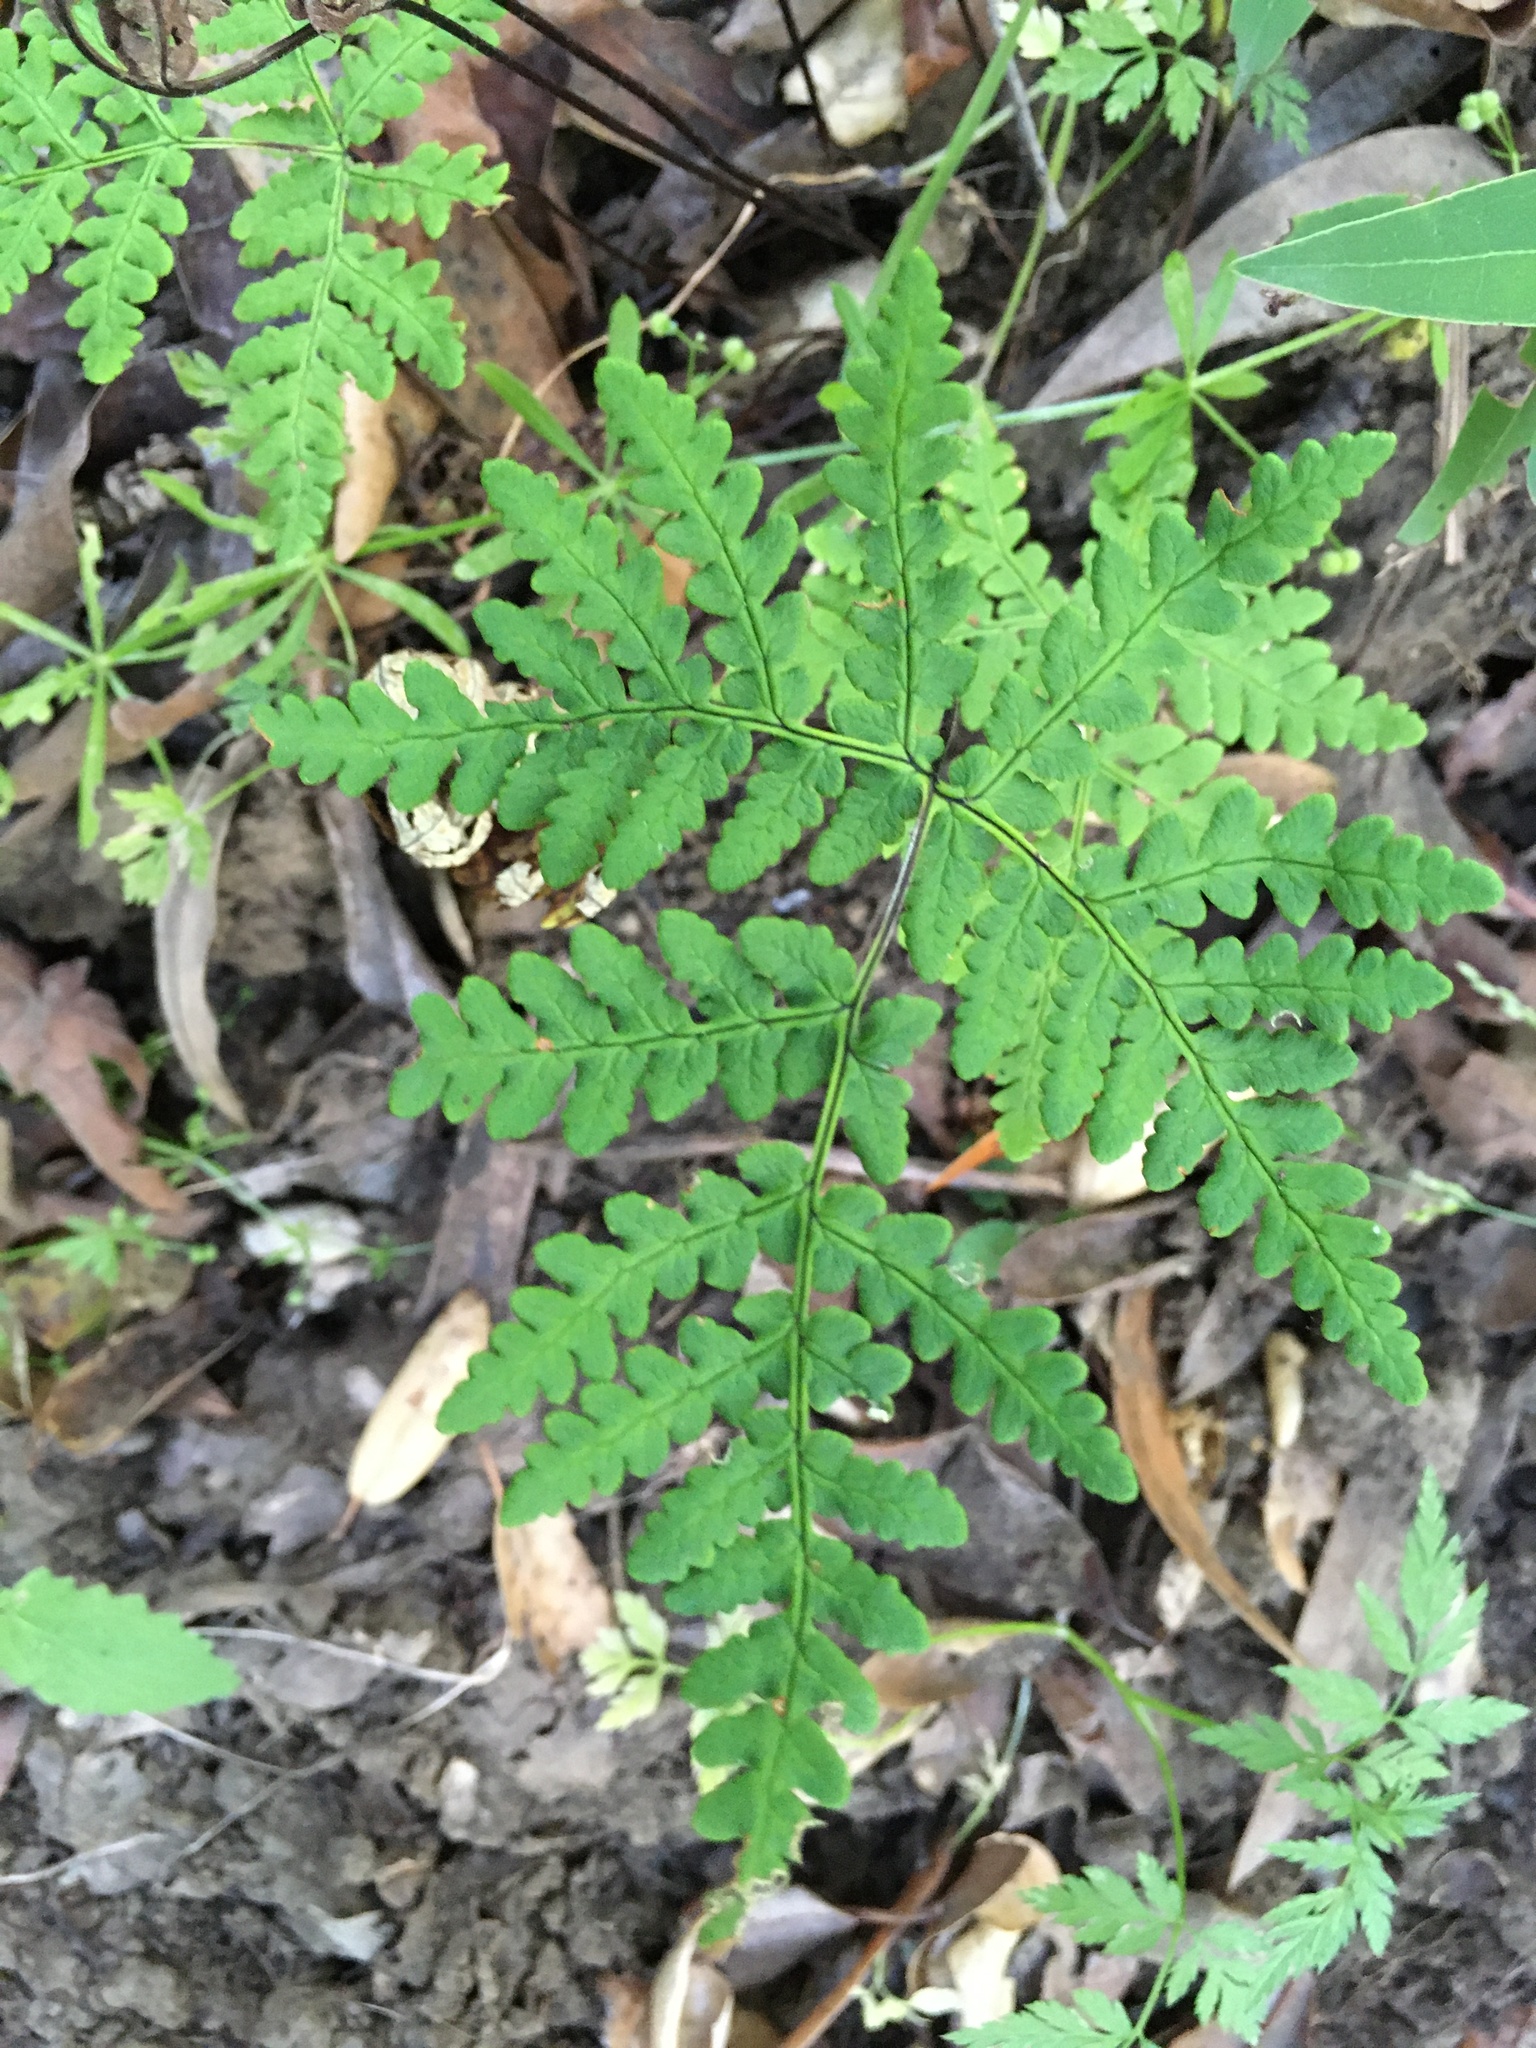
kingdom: Plantae
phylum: Tracheophyta
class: Polypodiopsida
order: Polypodiales
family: Pteridaceae
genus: Pentagramma
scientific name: Pentagramma triangularis
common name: Gold fern
